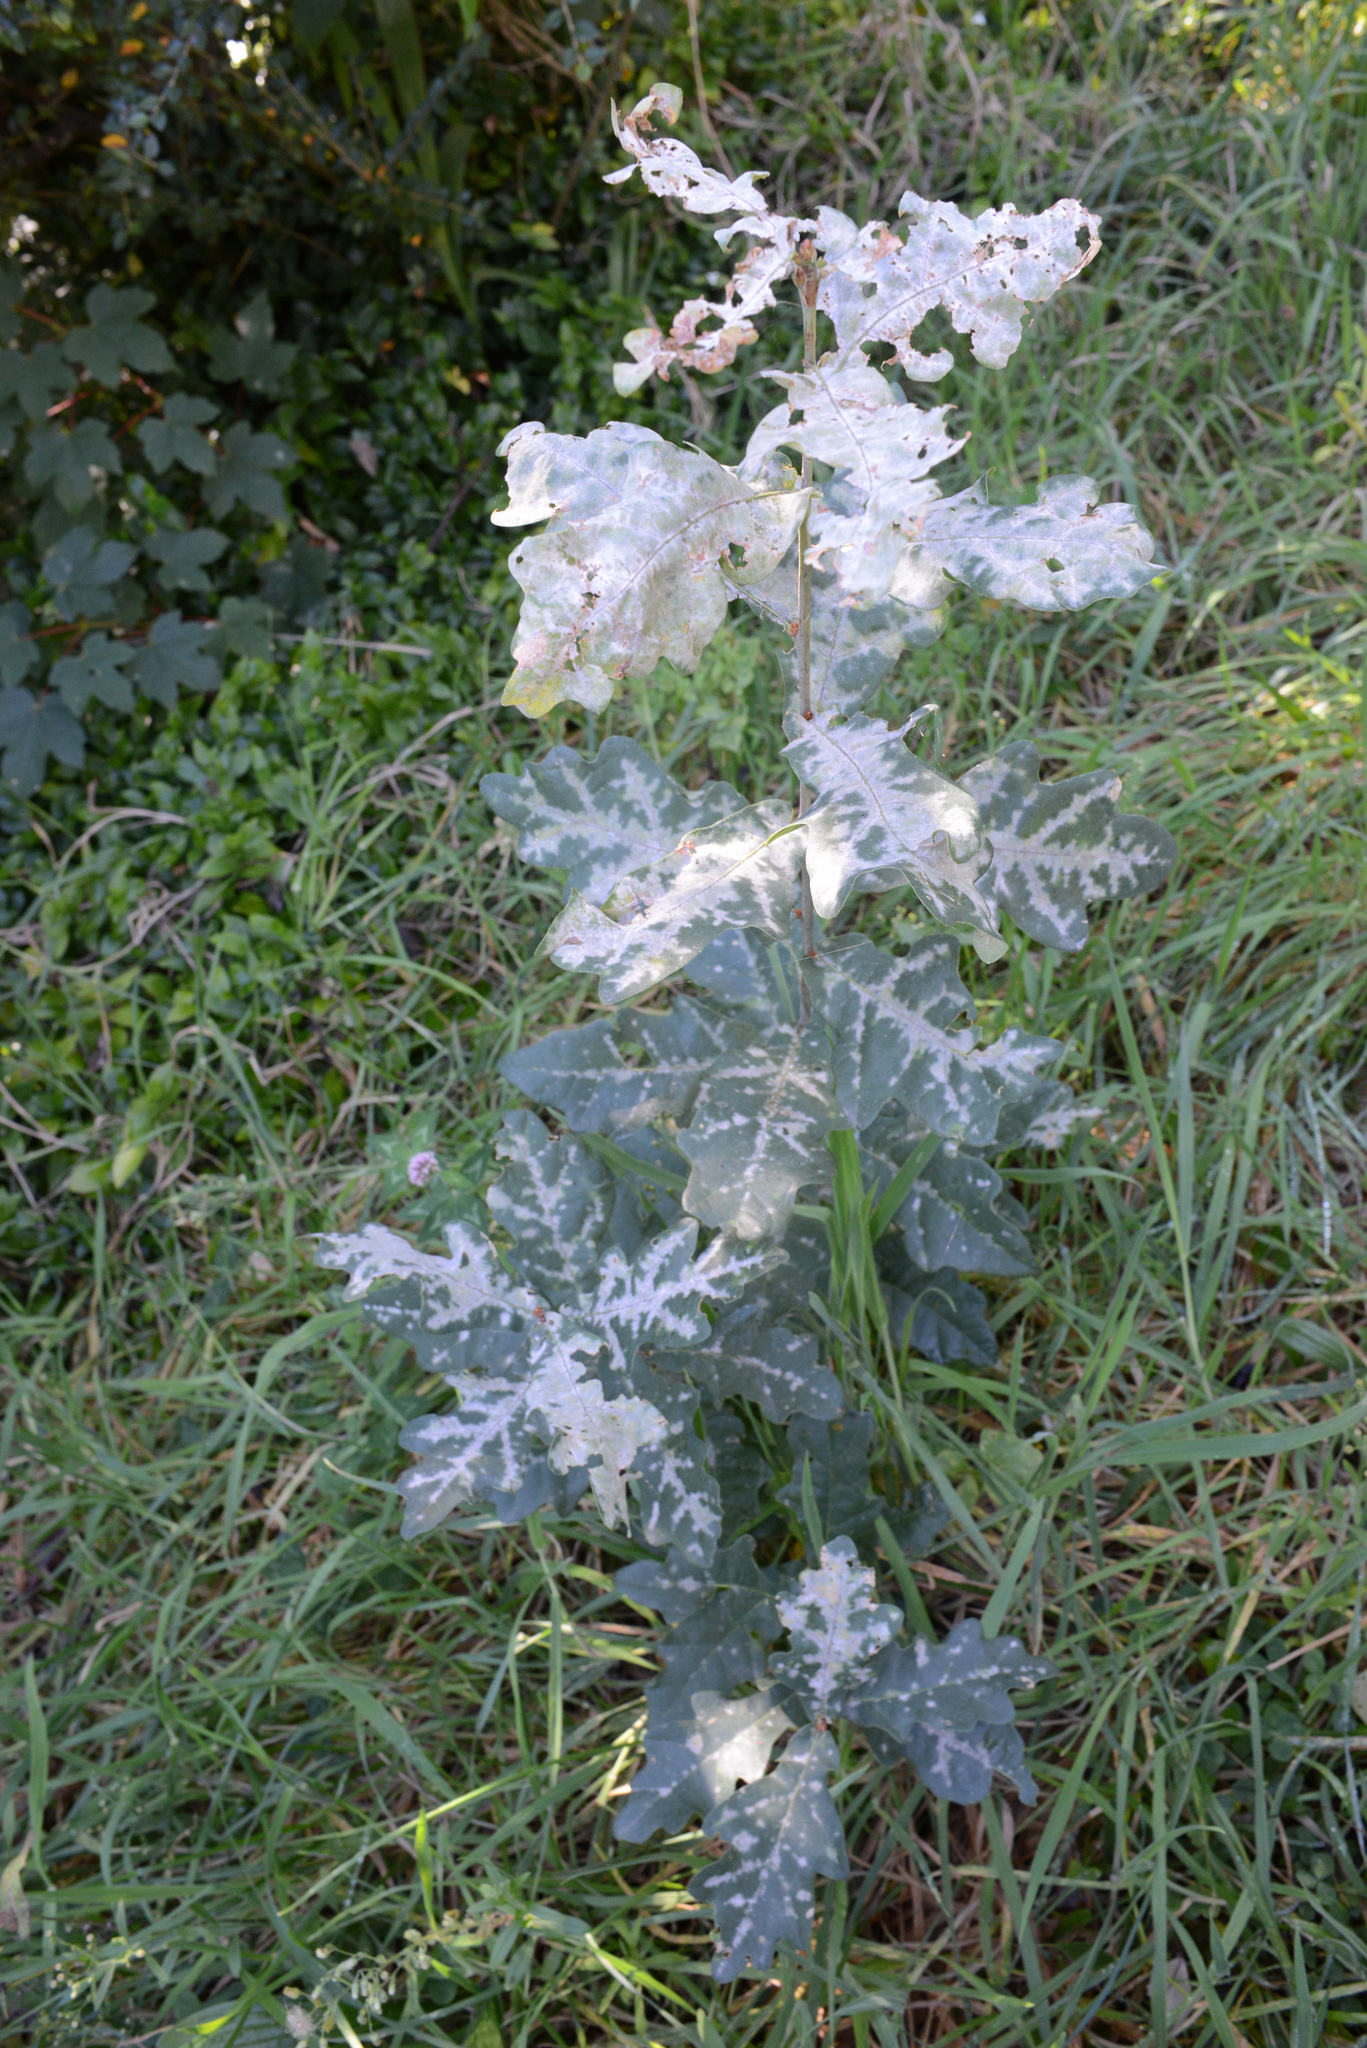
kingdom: Plantae
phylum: Tracheophyta
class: Magnoliopsida
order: Fagales
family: Fagaceae
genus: Quercus
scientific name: Quercus robur
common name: Pedunculate oak
